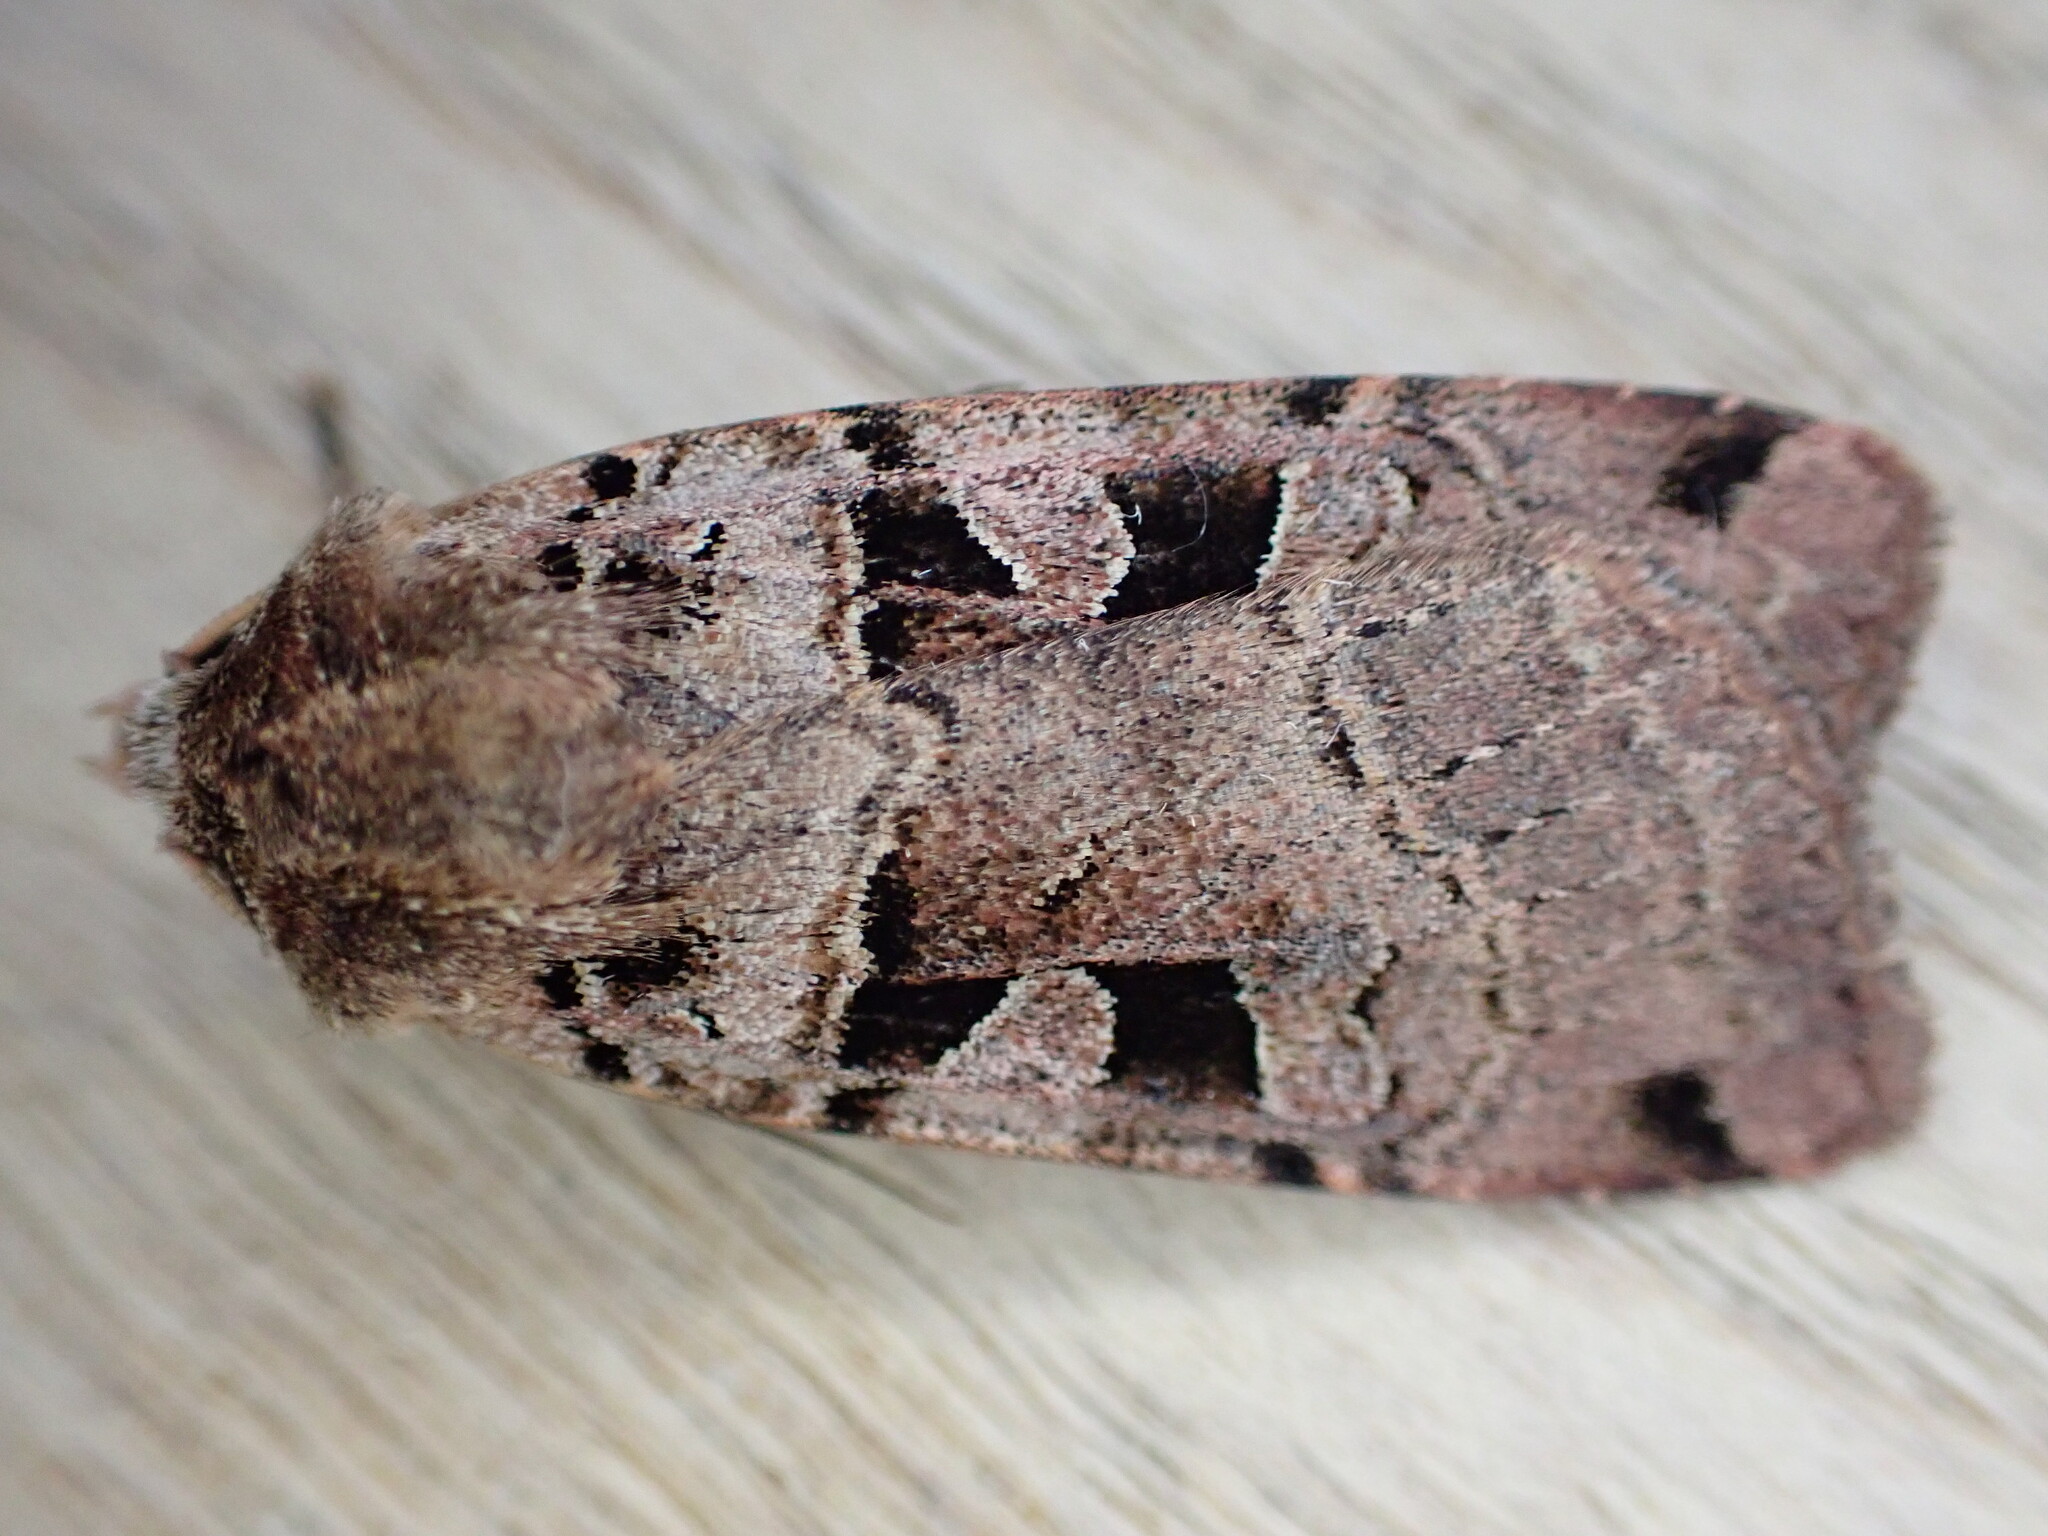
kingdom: Animalia
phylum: Arthropoda
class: Insecta
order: Lepidoptera
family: Noctuidae
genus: Xestia
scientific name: Xestia triangulum
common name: Double square-spot
